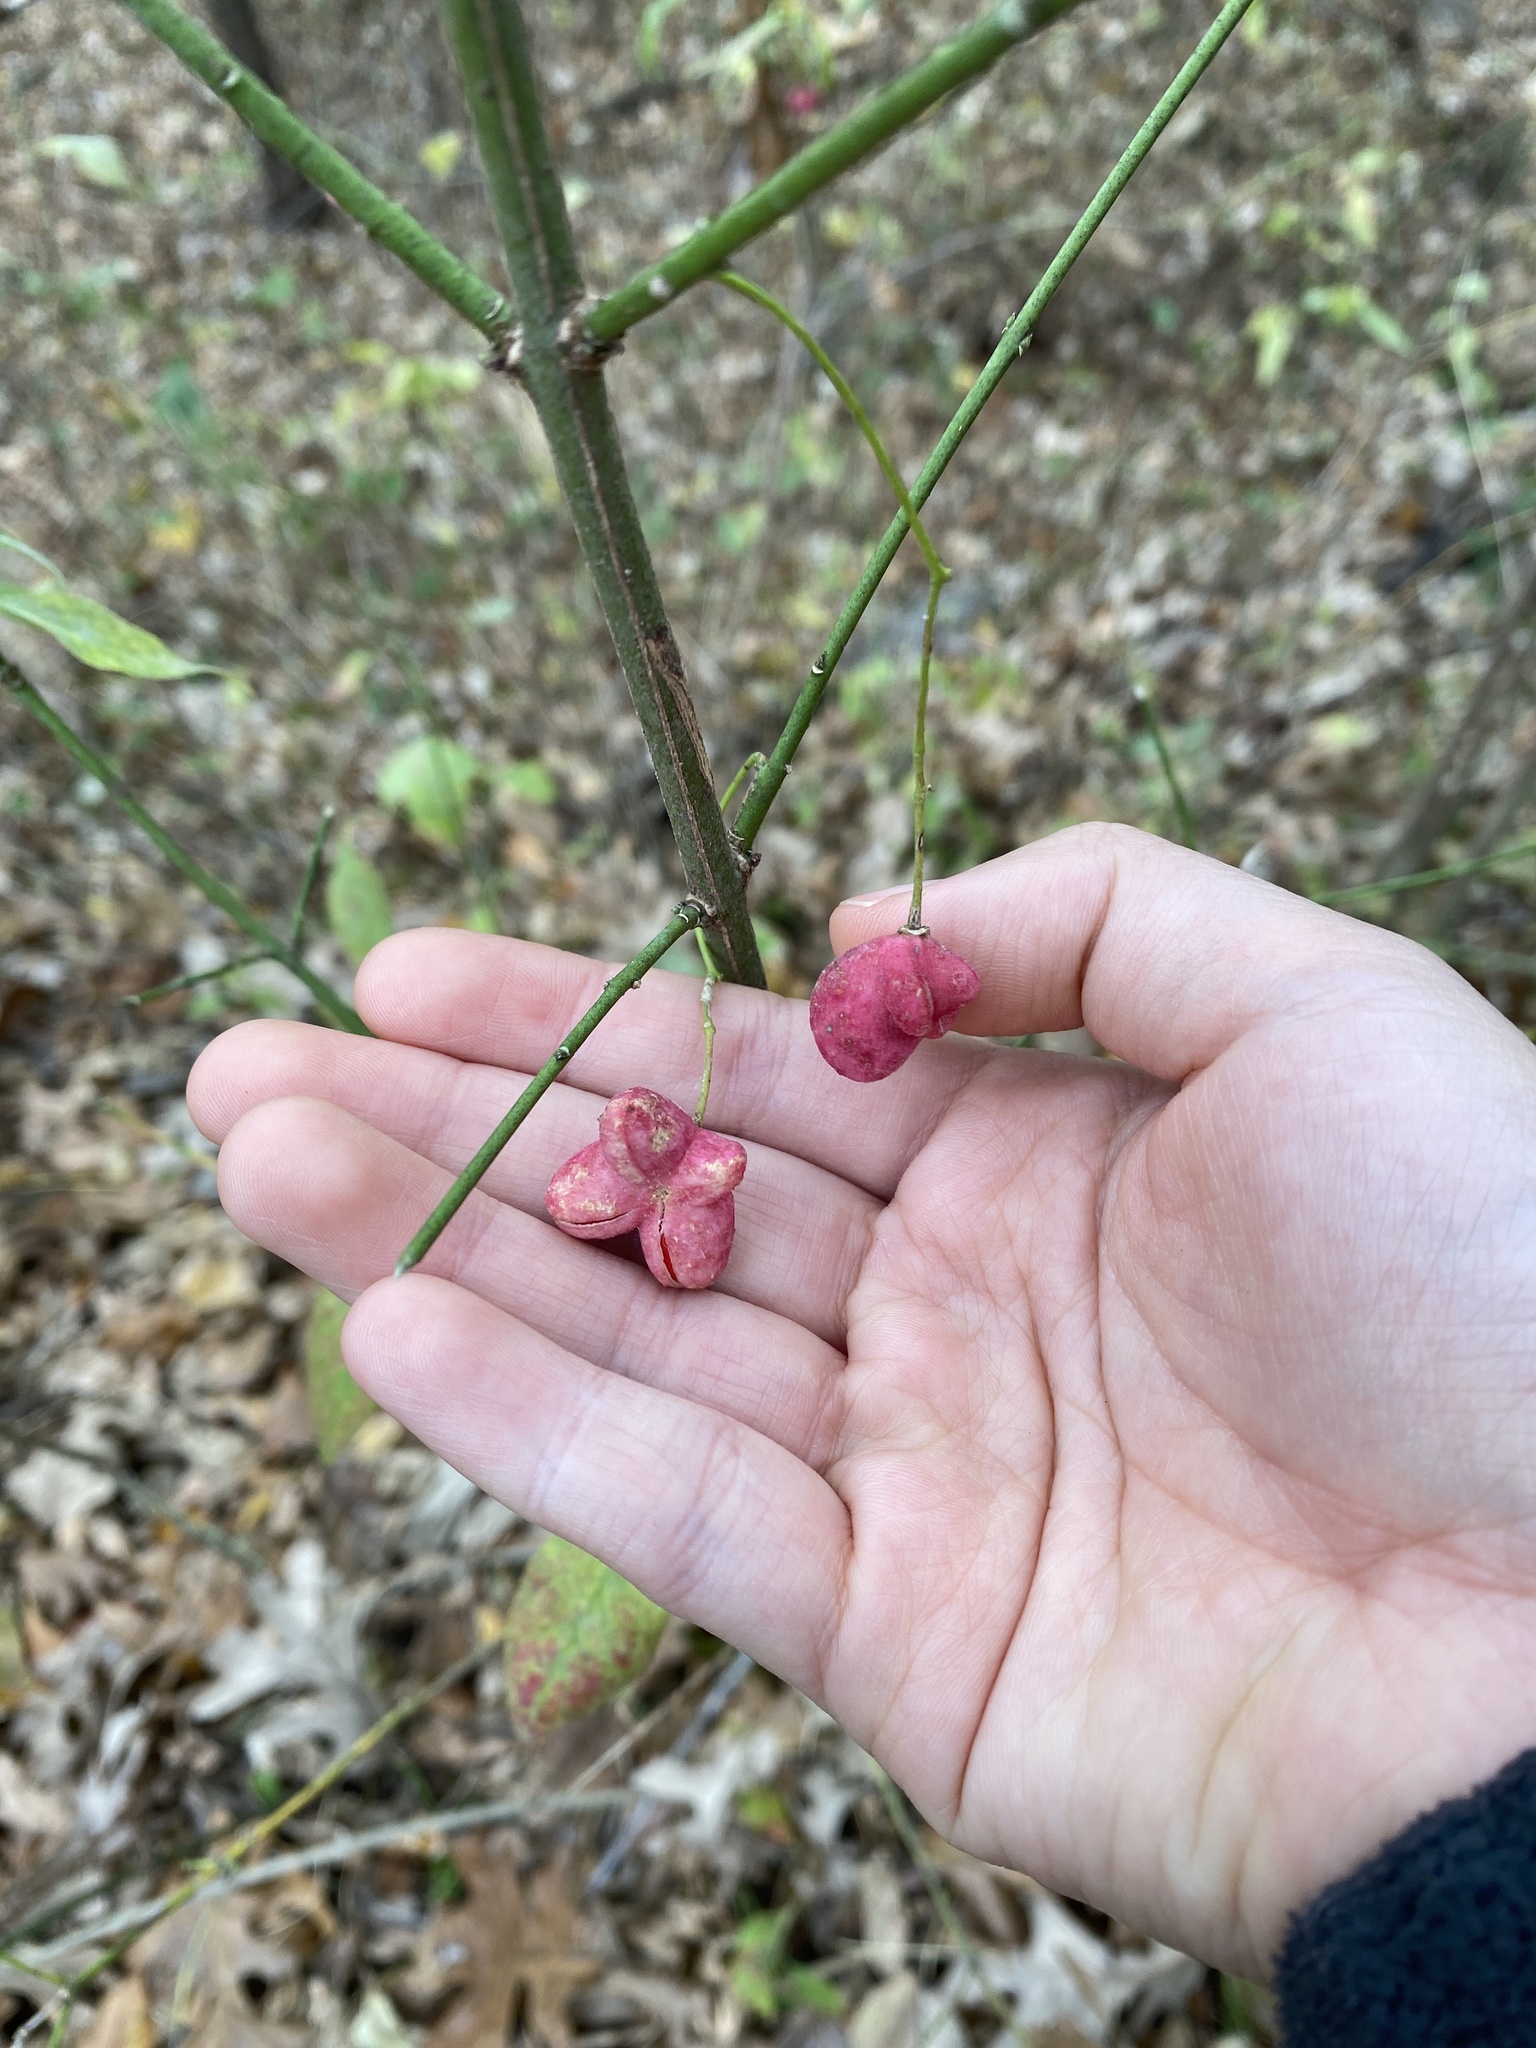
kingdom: Plantae
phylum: Tracheophyta
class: Magnoliopsida
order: Celastrales
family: Celastraceae
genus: Euonymus
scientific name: Euonymus atropurpureus
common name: Eastern wahoo
